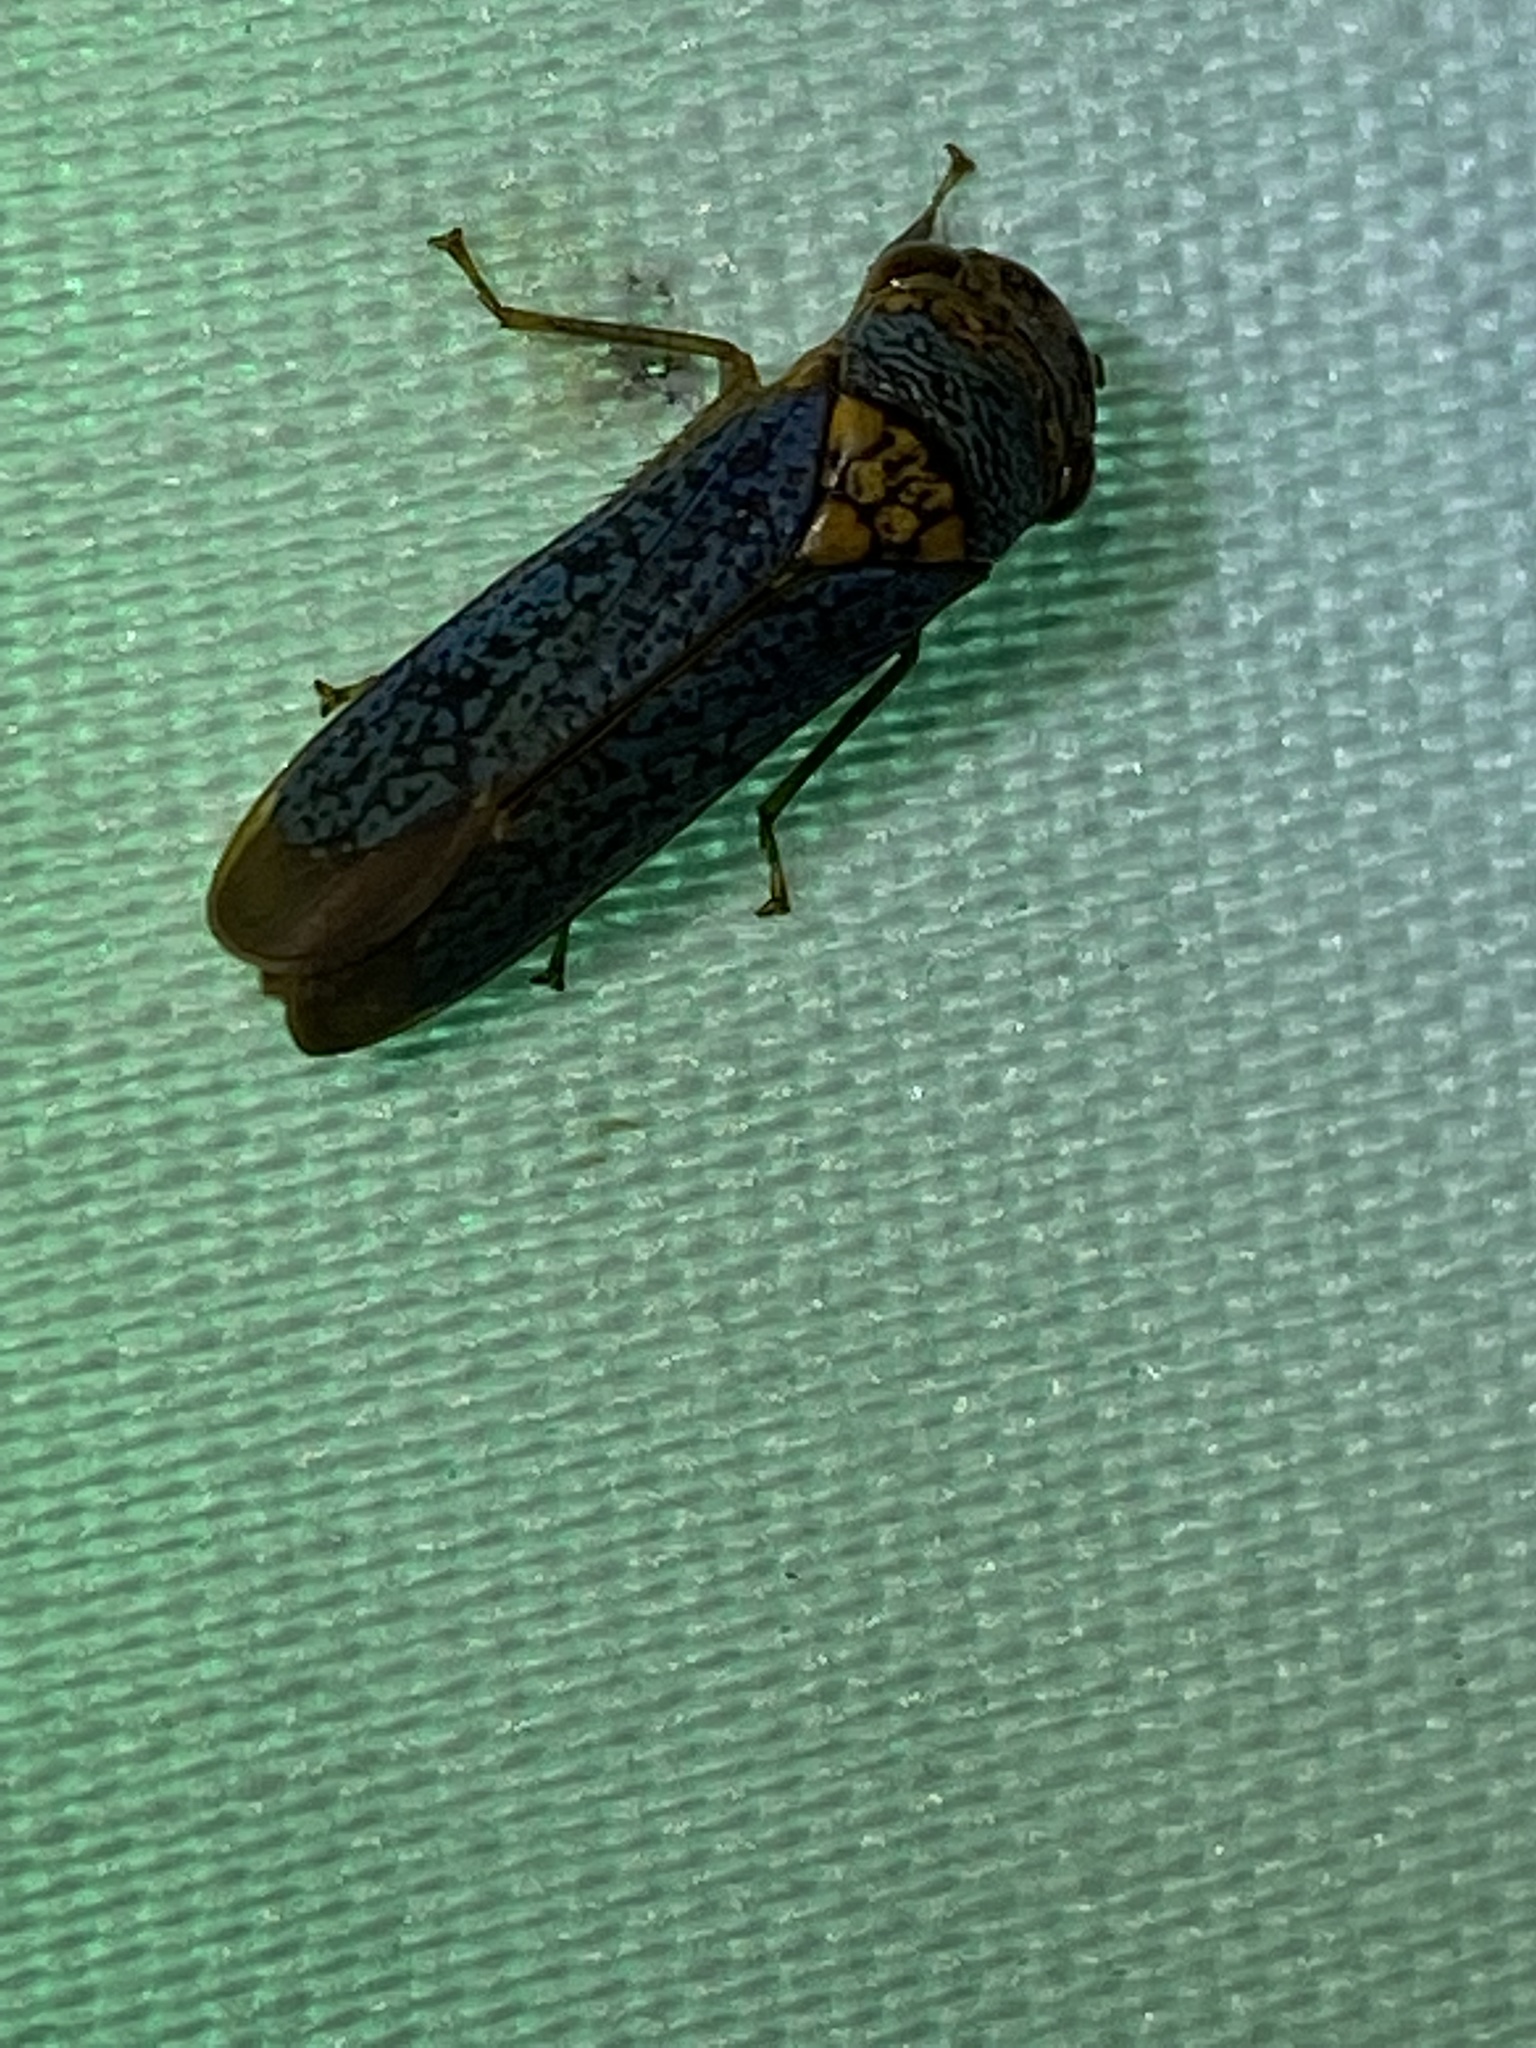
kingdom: Animalia
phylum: Arthropoda
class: Insecta
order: Hemiptera
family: Cicadellidae
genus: Oncometopia
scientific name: Oncometopia orbona
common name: Broad-headed sharpshooter
